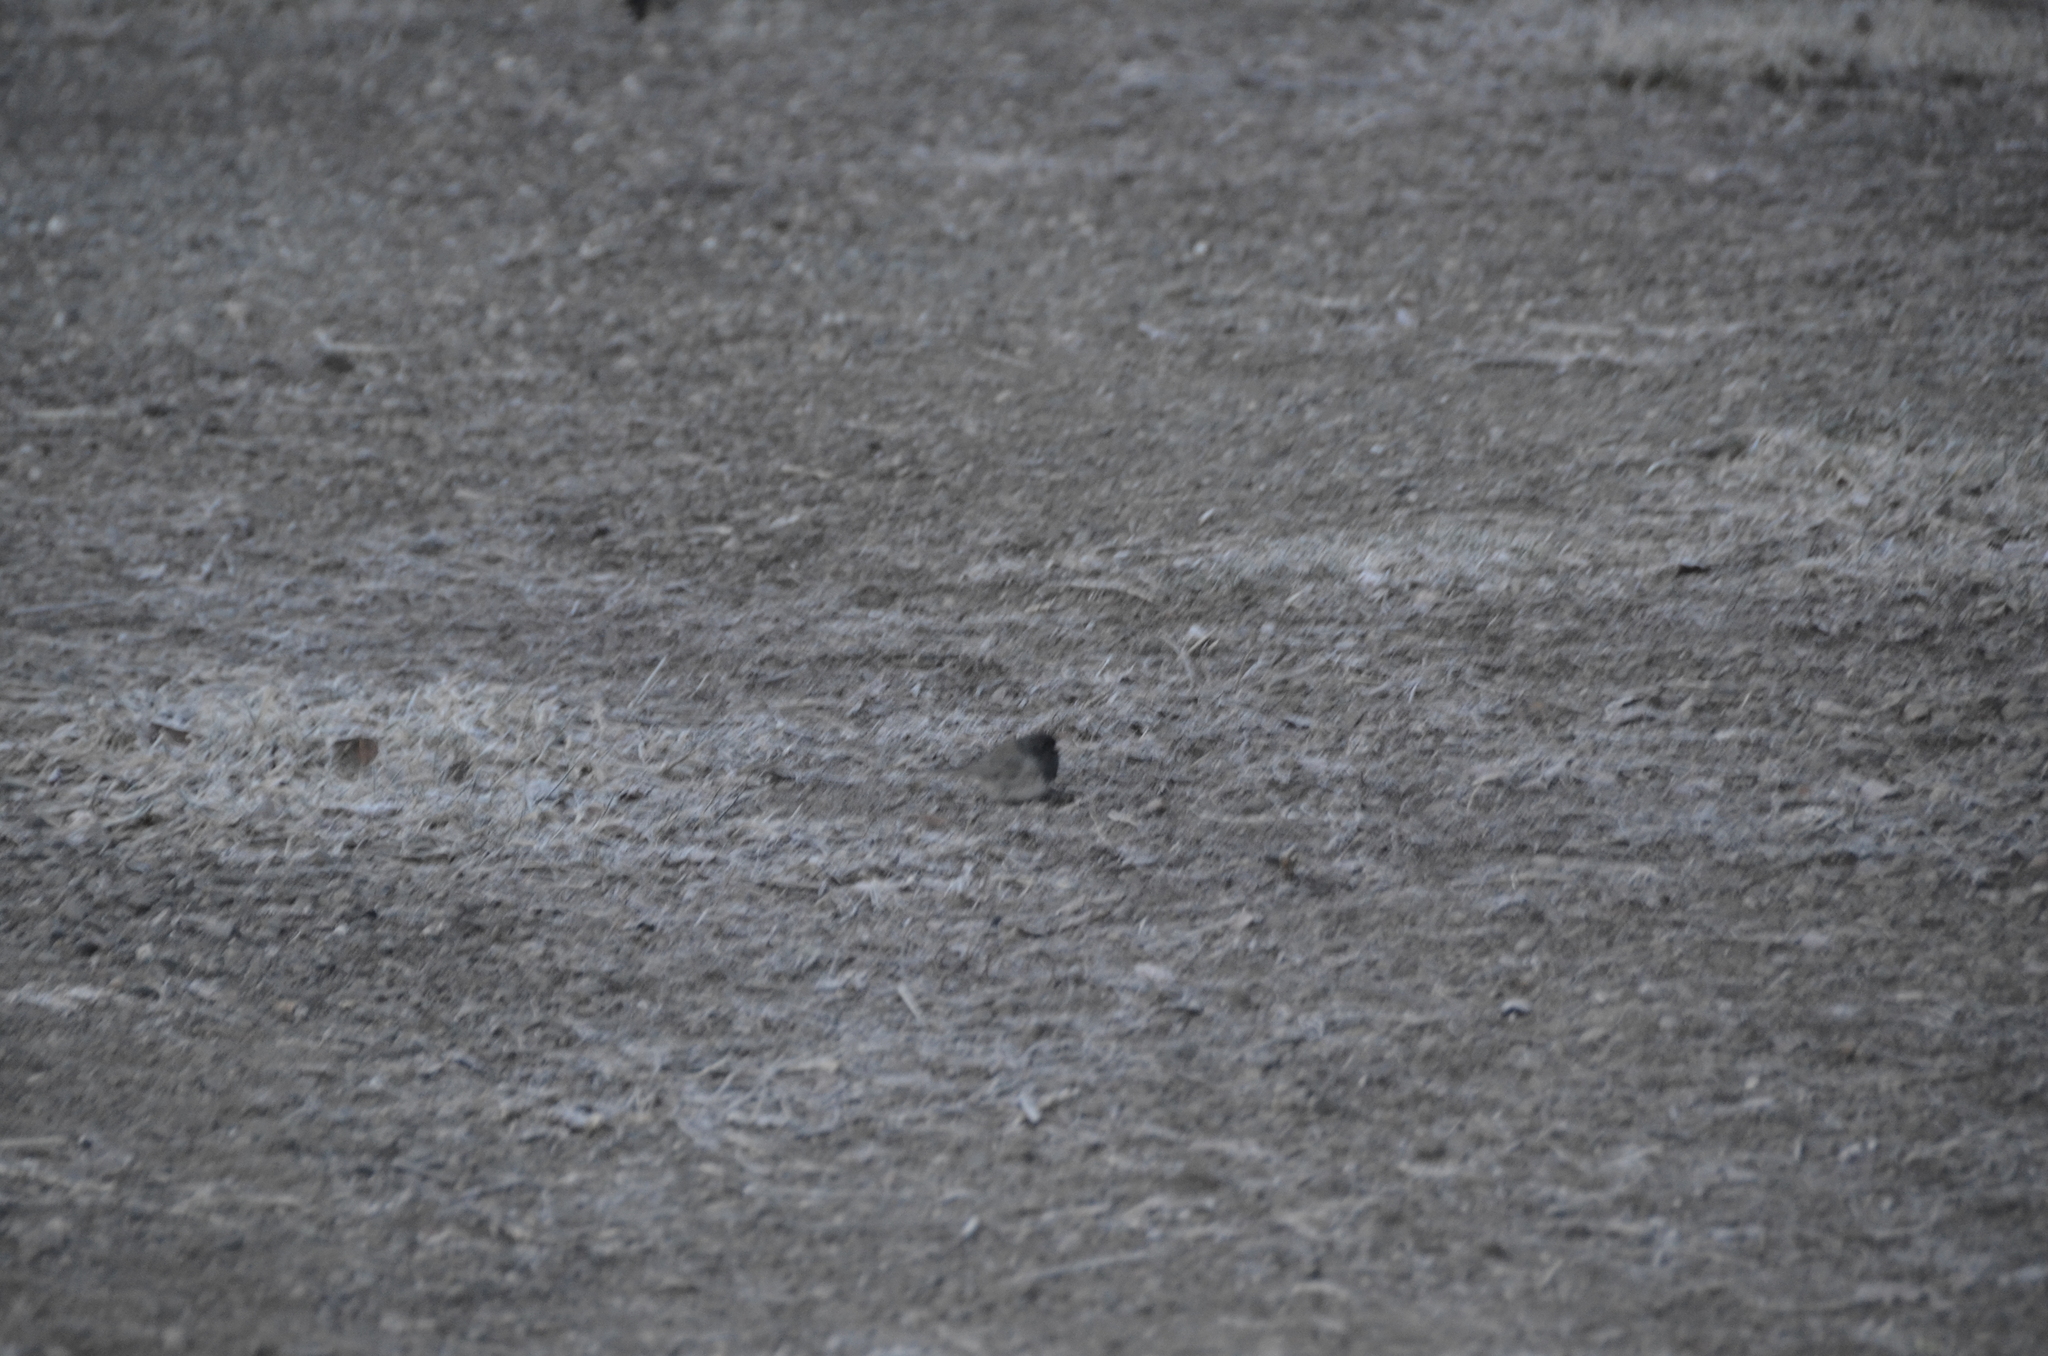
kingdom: Animalia
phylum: Chordata
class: Aves
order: Passeriformes
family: Passerellidae
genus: Junco
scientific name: Junco hyemalis
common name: Dark-eyed junco
